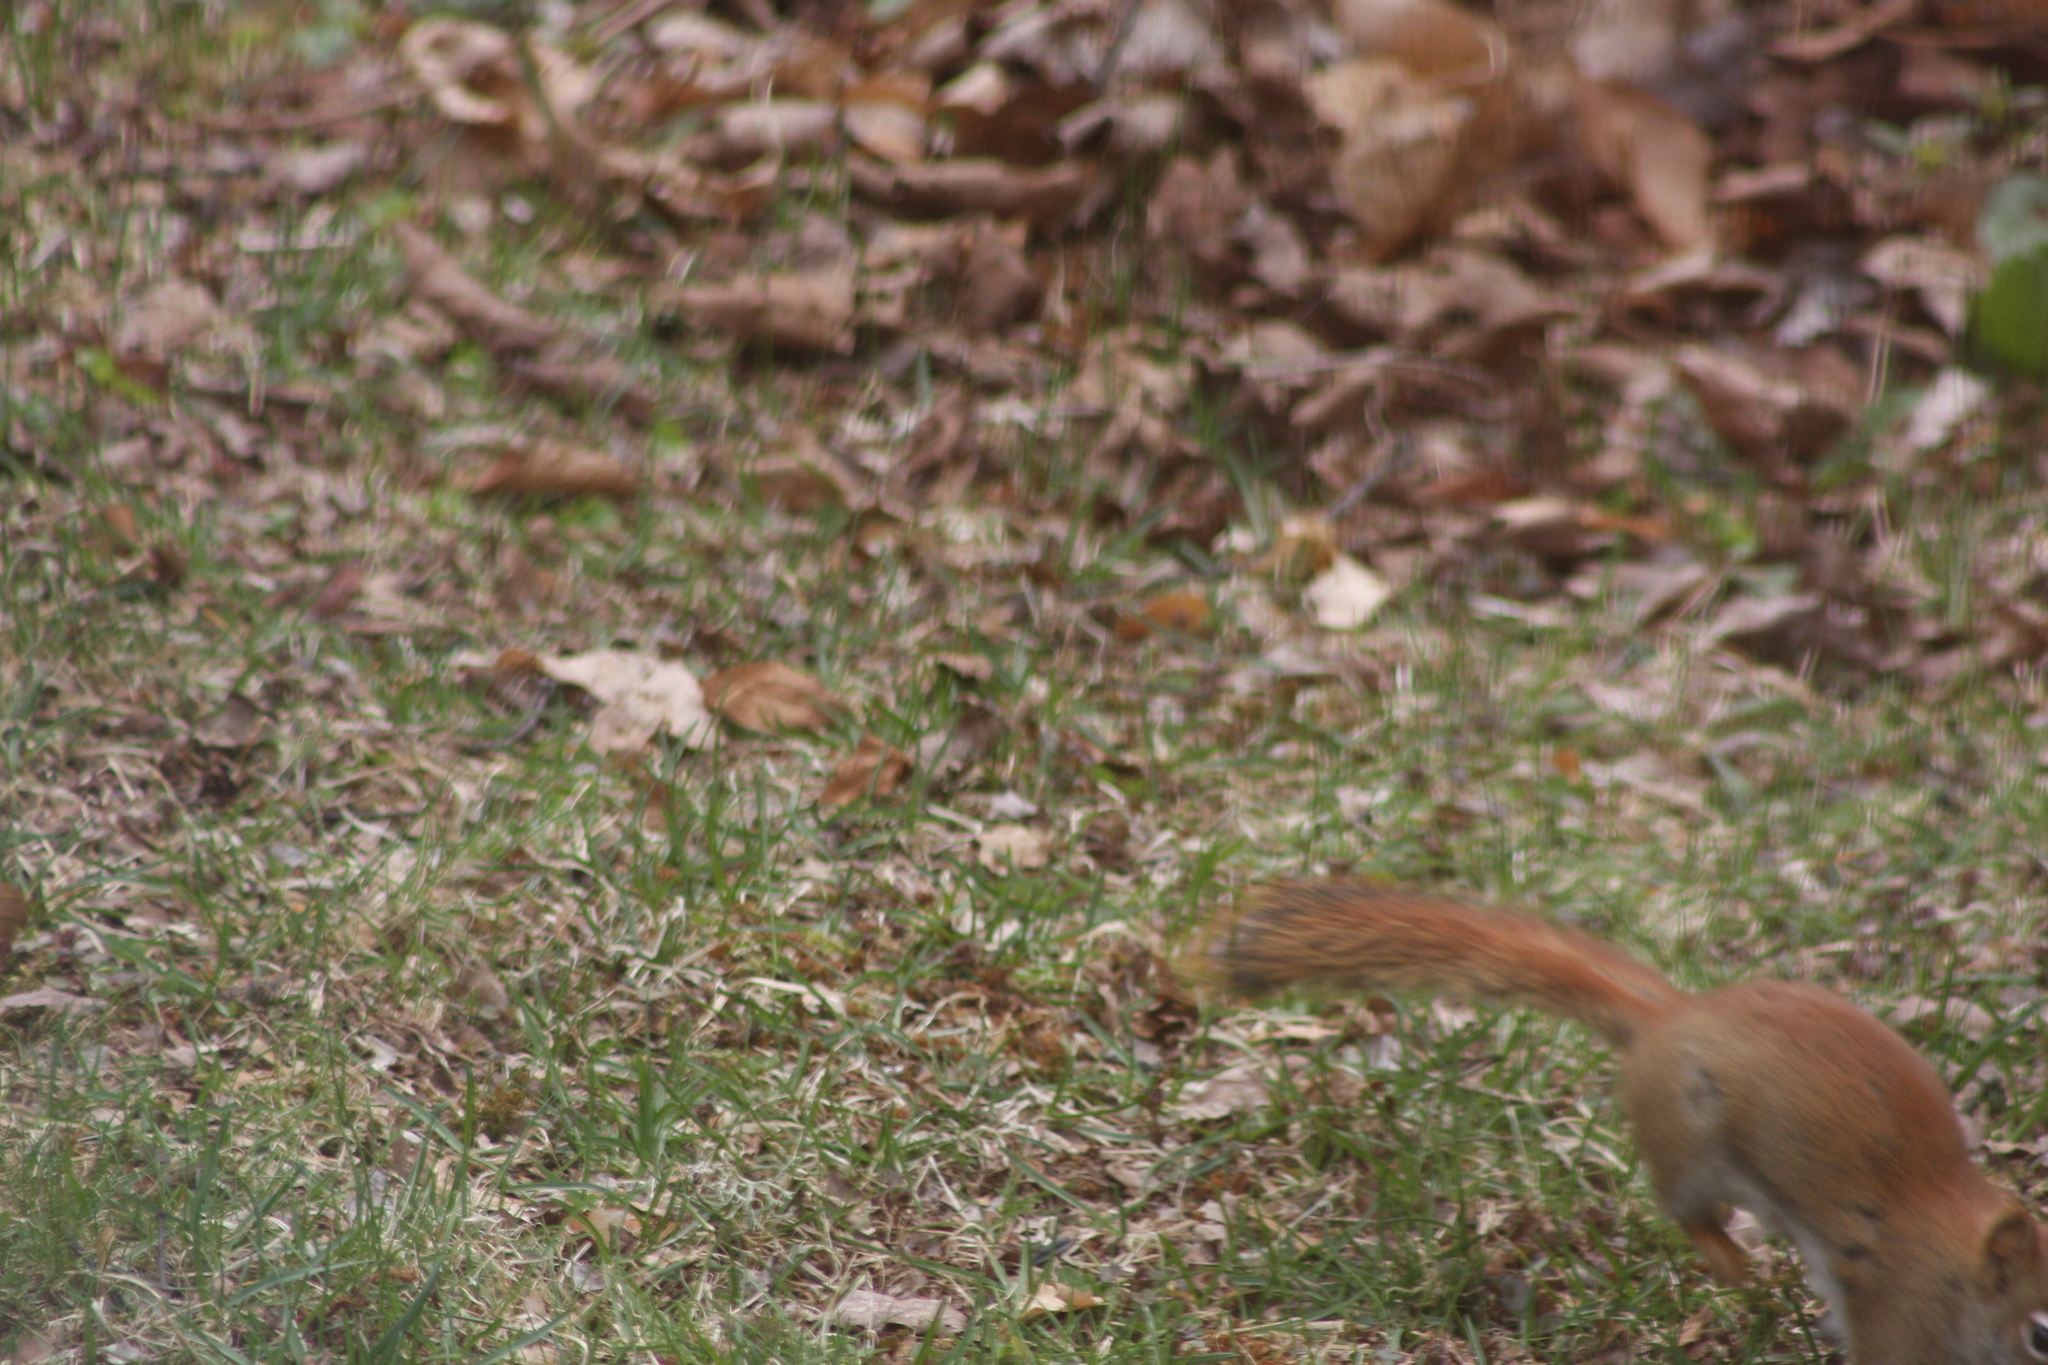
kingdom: Animalia
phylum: Chordata
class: Mammalia
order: Rodentia
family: Sciuridae
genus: Tamiasciurus
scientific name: Tamiasciurus hudsonicus
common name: Red squirrel
